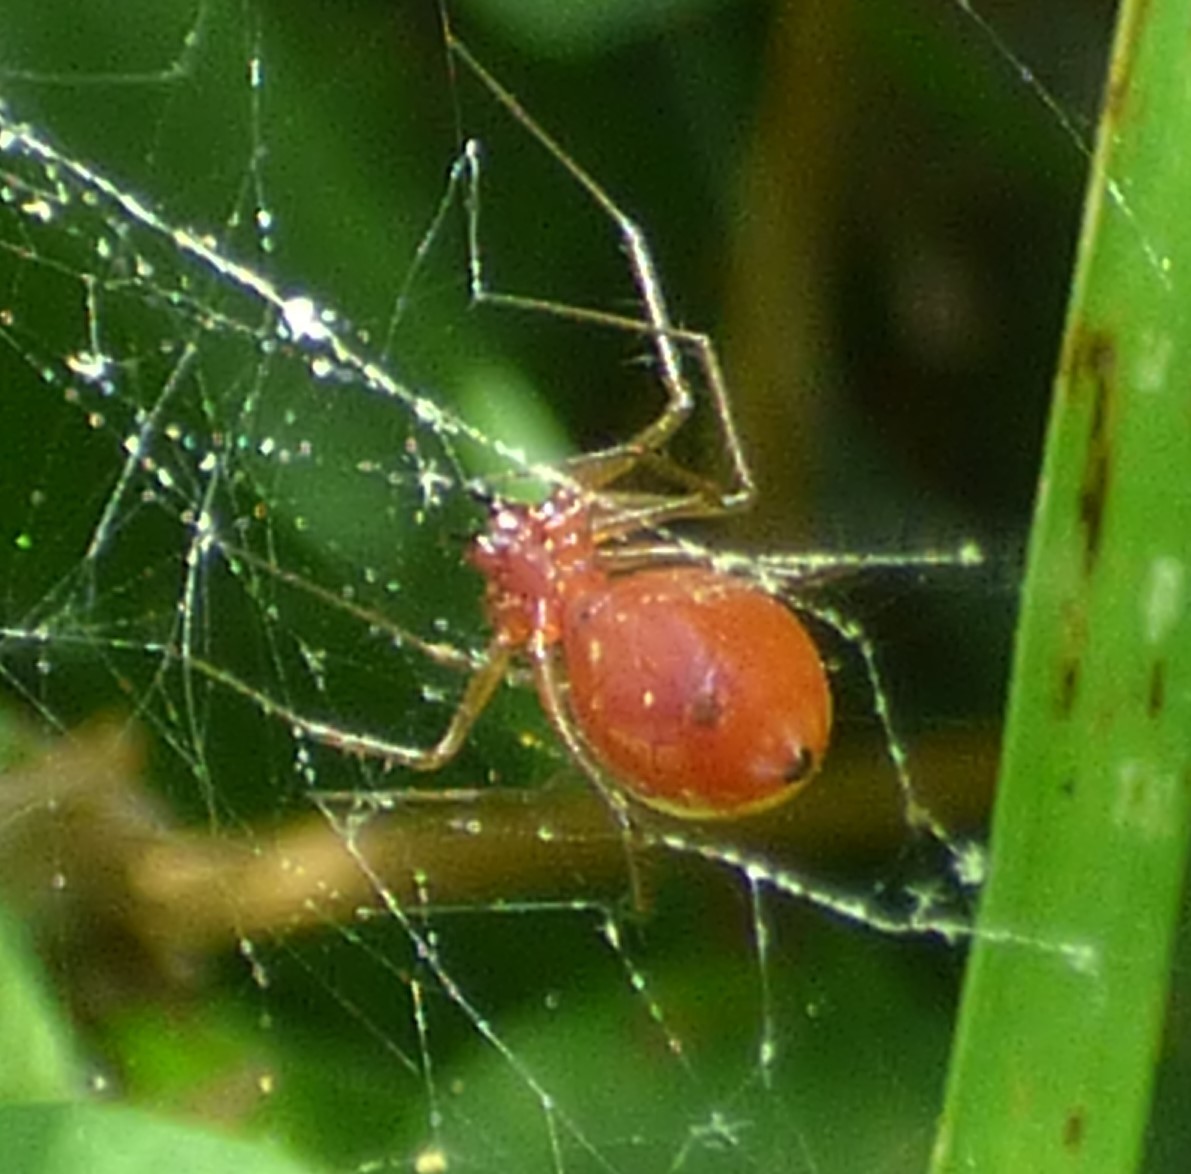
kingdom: Animalia
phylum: Arthropoda
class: Arachnida
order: Araneae
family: Linyphiidae
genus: Florinda
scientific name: Florinda coccinea
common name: Black-tailed red sheetweaver
